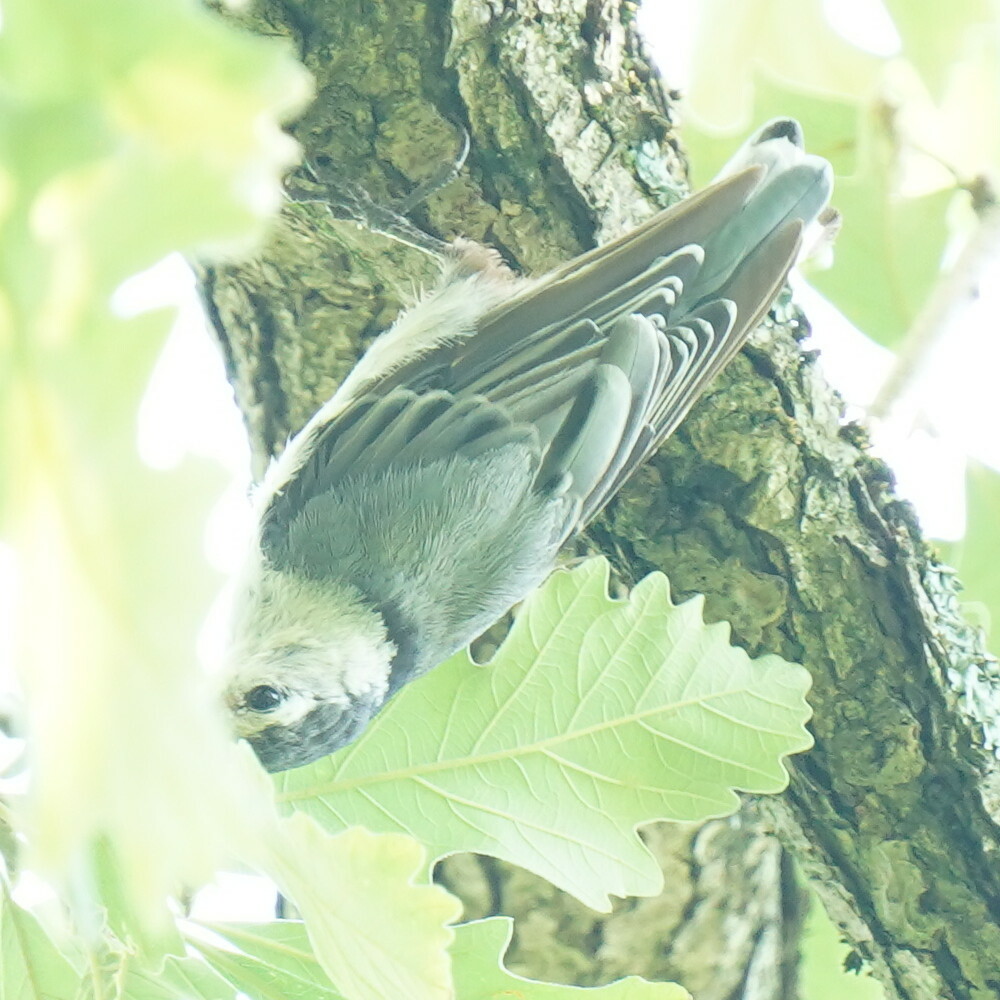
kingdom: Animalia
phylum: Chordata
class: Aves
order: Passeriformes
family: Sittidae
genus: Sitta
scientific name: Sitta carolinensis
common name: White-breasted nuthatch
